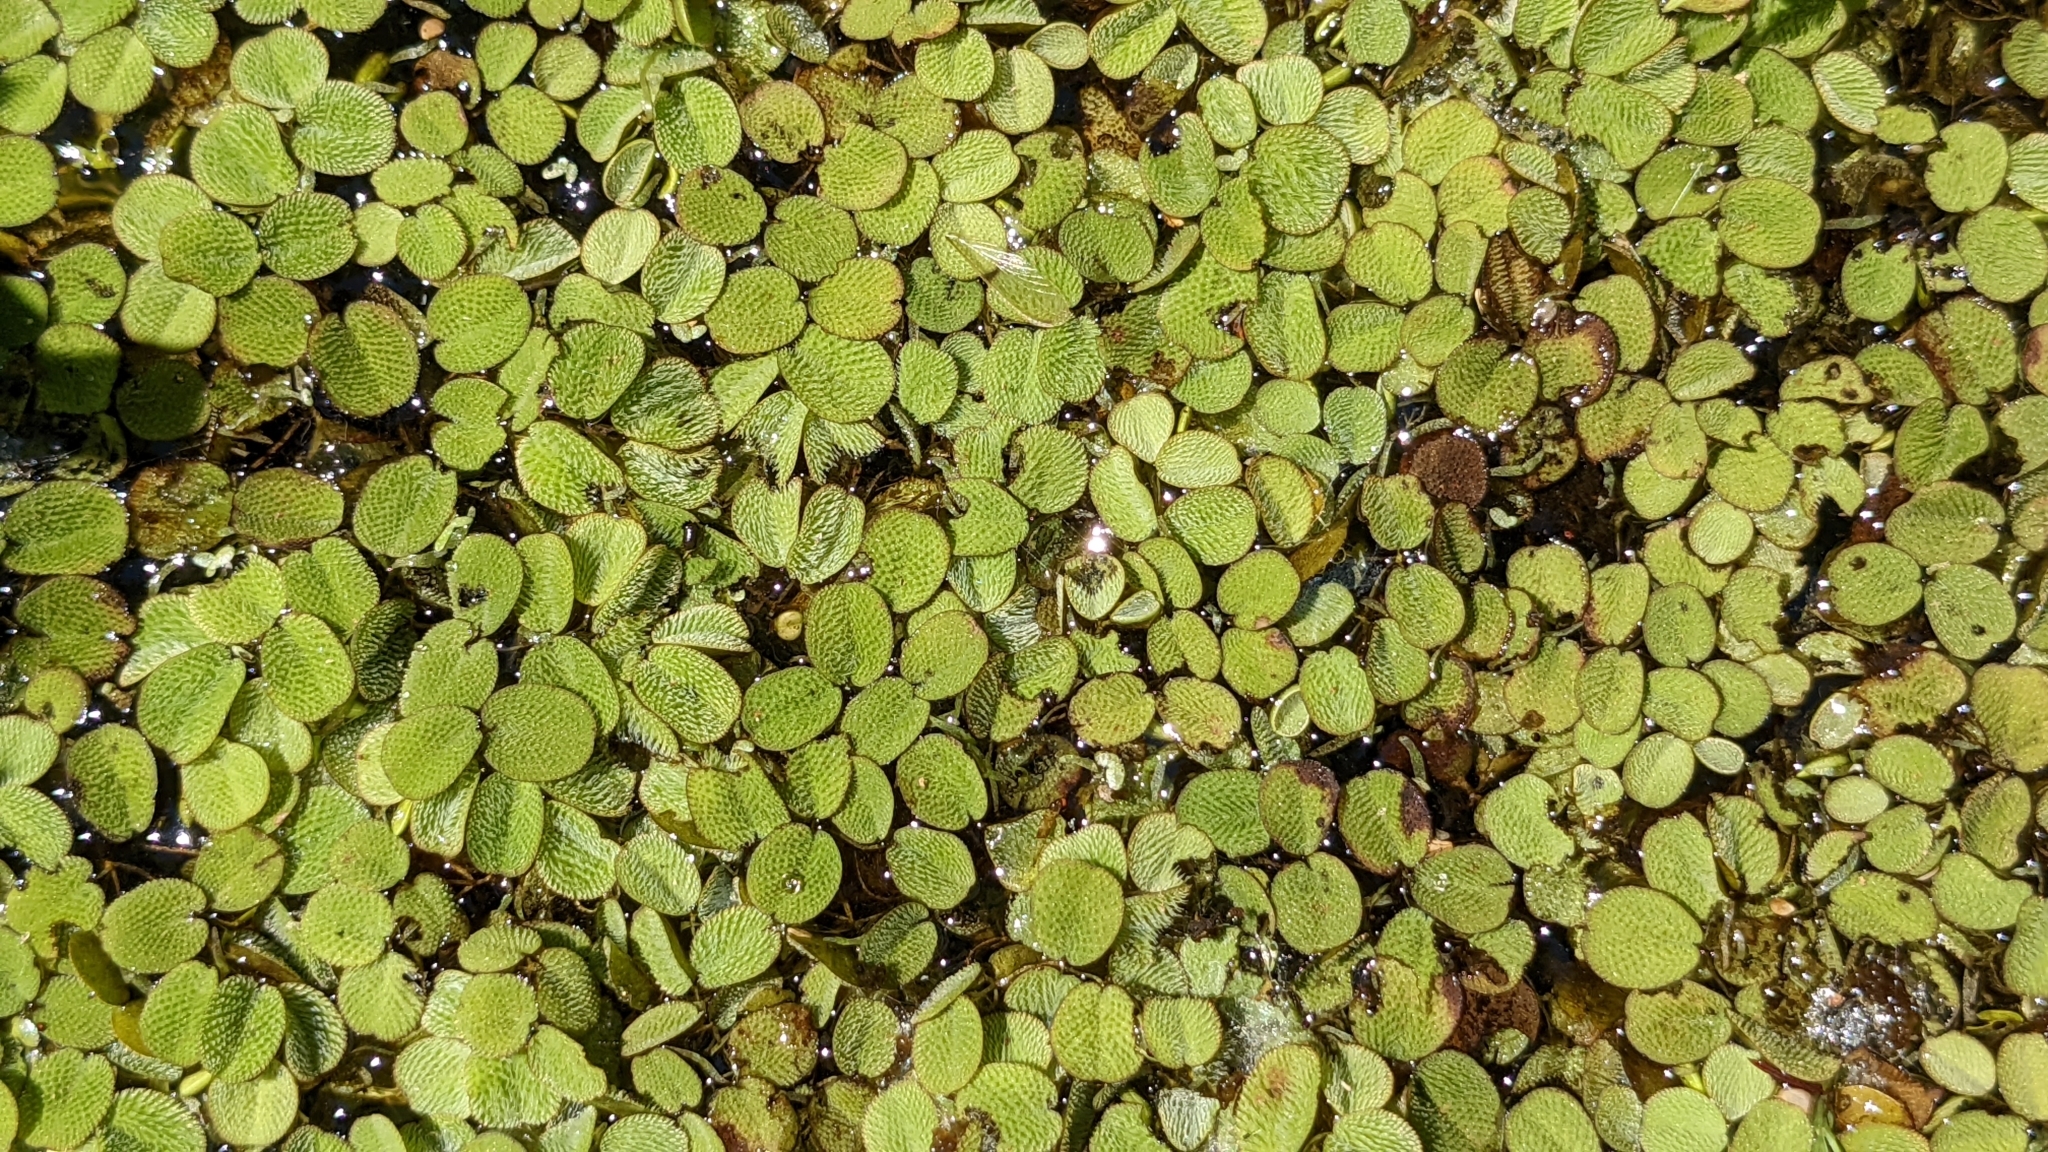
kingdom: Plantae
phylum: Tracheophyta
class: Polypodiopsida
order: Salviniales
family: Salviniaceae
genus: Salvinia
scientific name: Salvinia minima
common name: Water spangles
